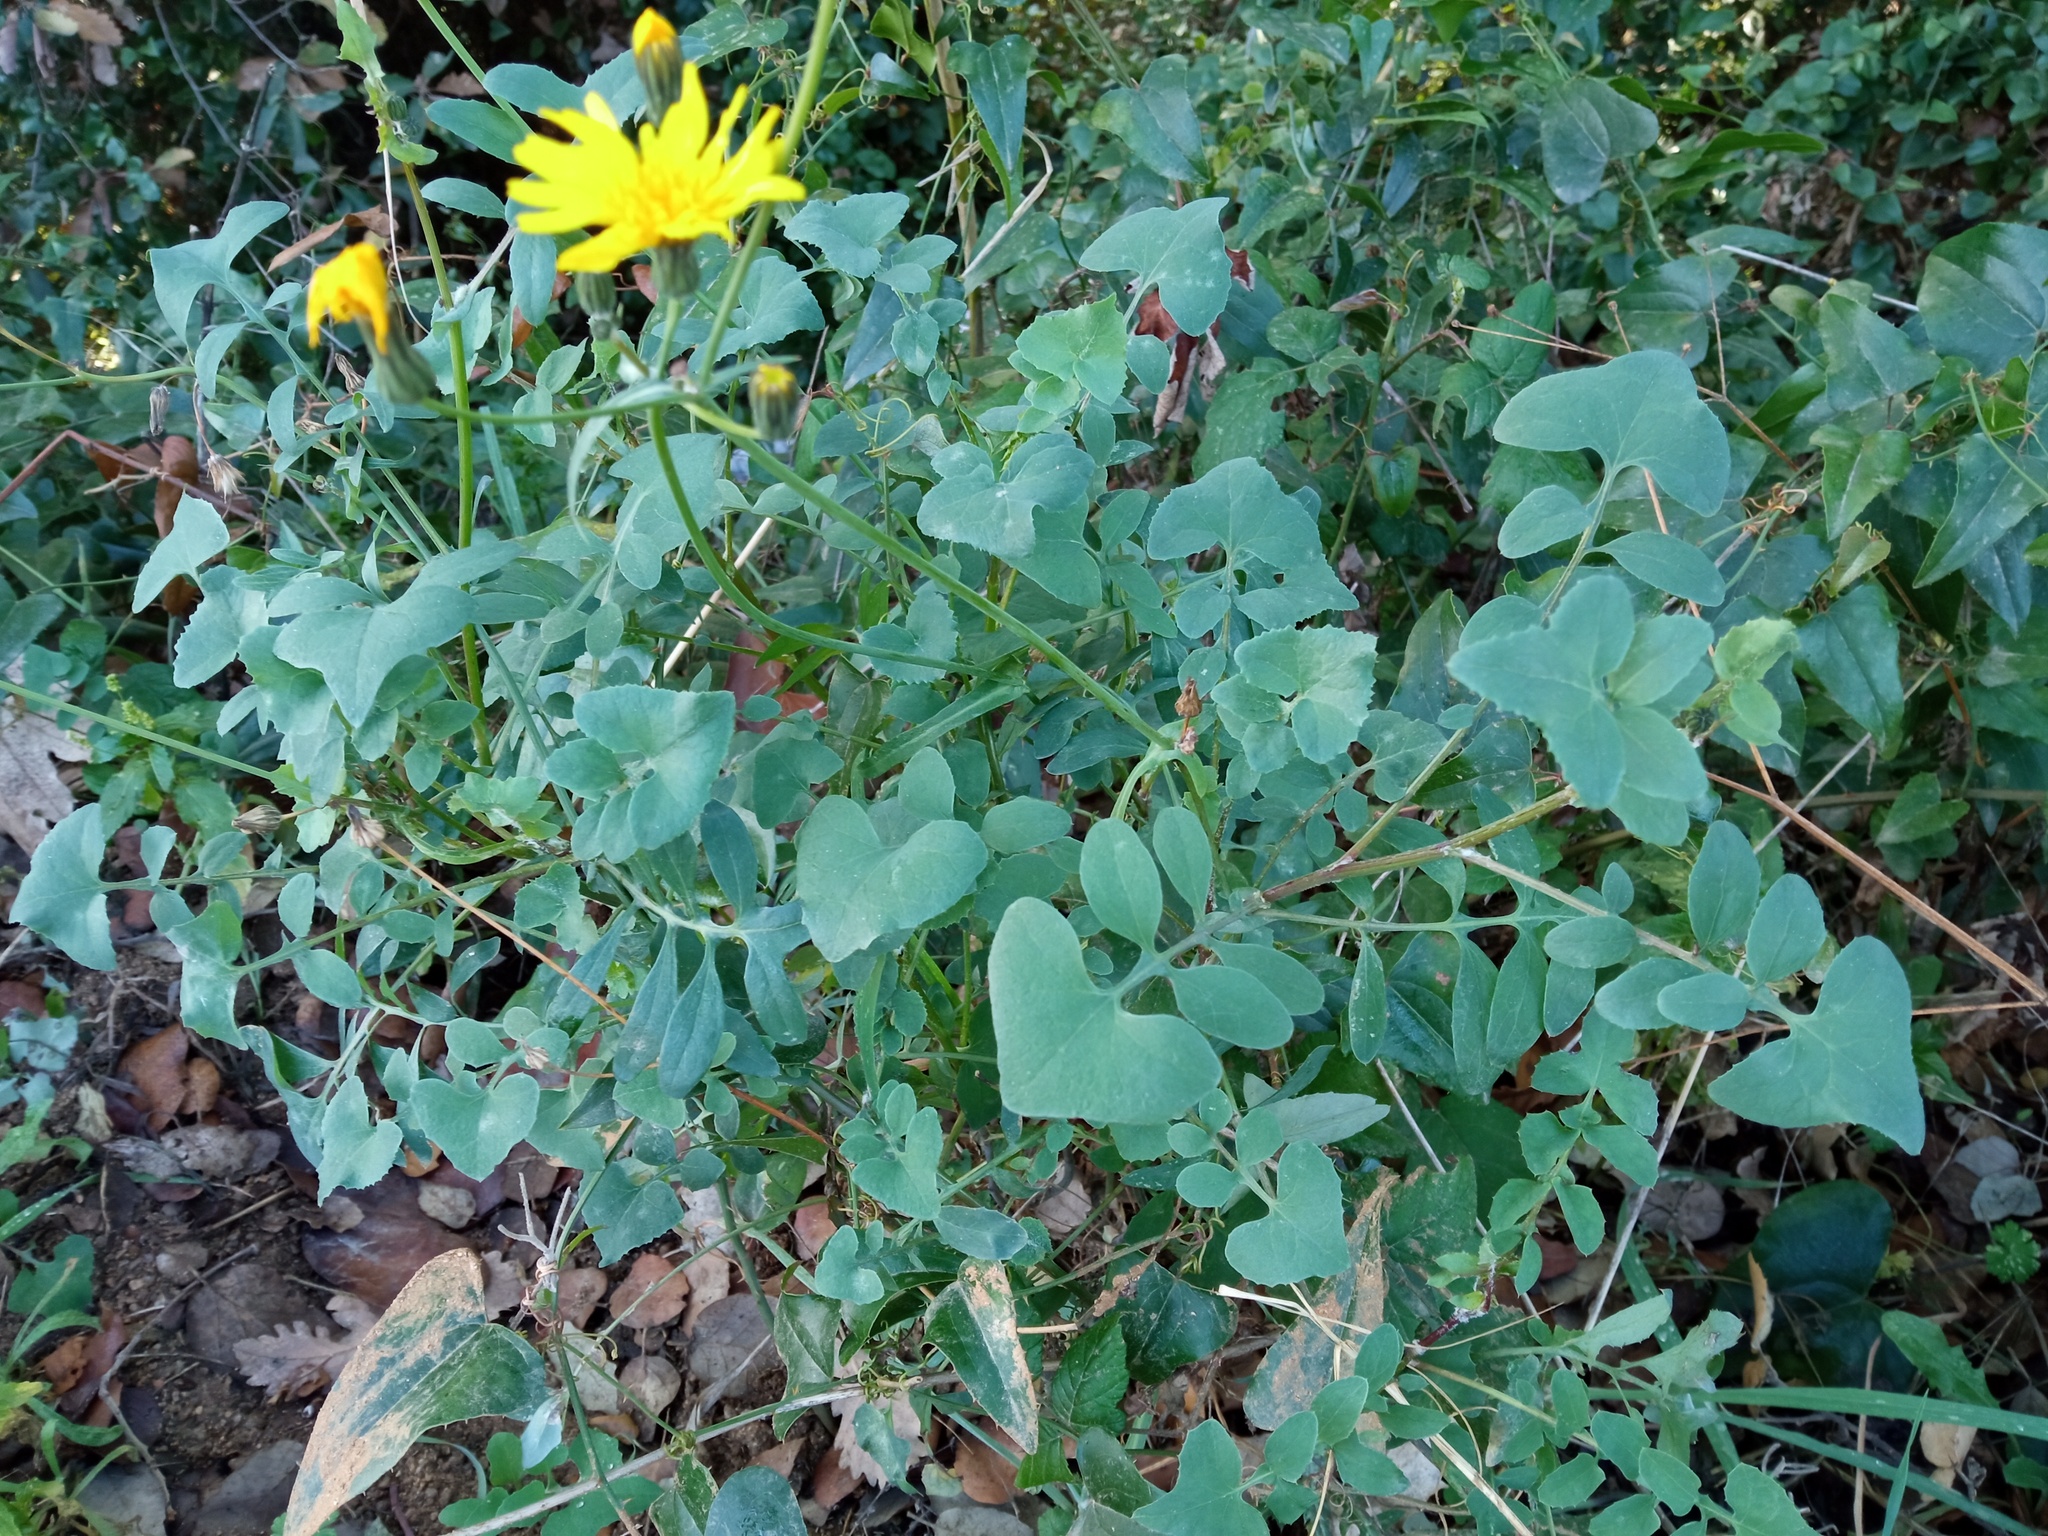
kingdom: Plantae
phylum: Tracheophyta
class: Magnoliopsida
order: Asterales
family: Asteraceae
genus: Sonchus
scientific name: Sonchus tenerrimus
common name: Clammy sowthistle
